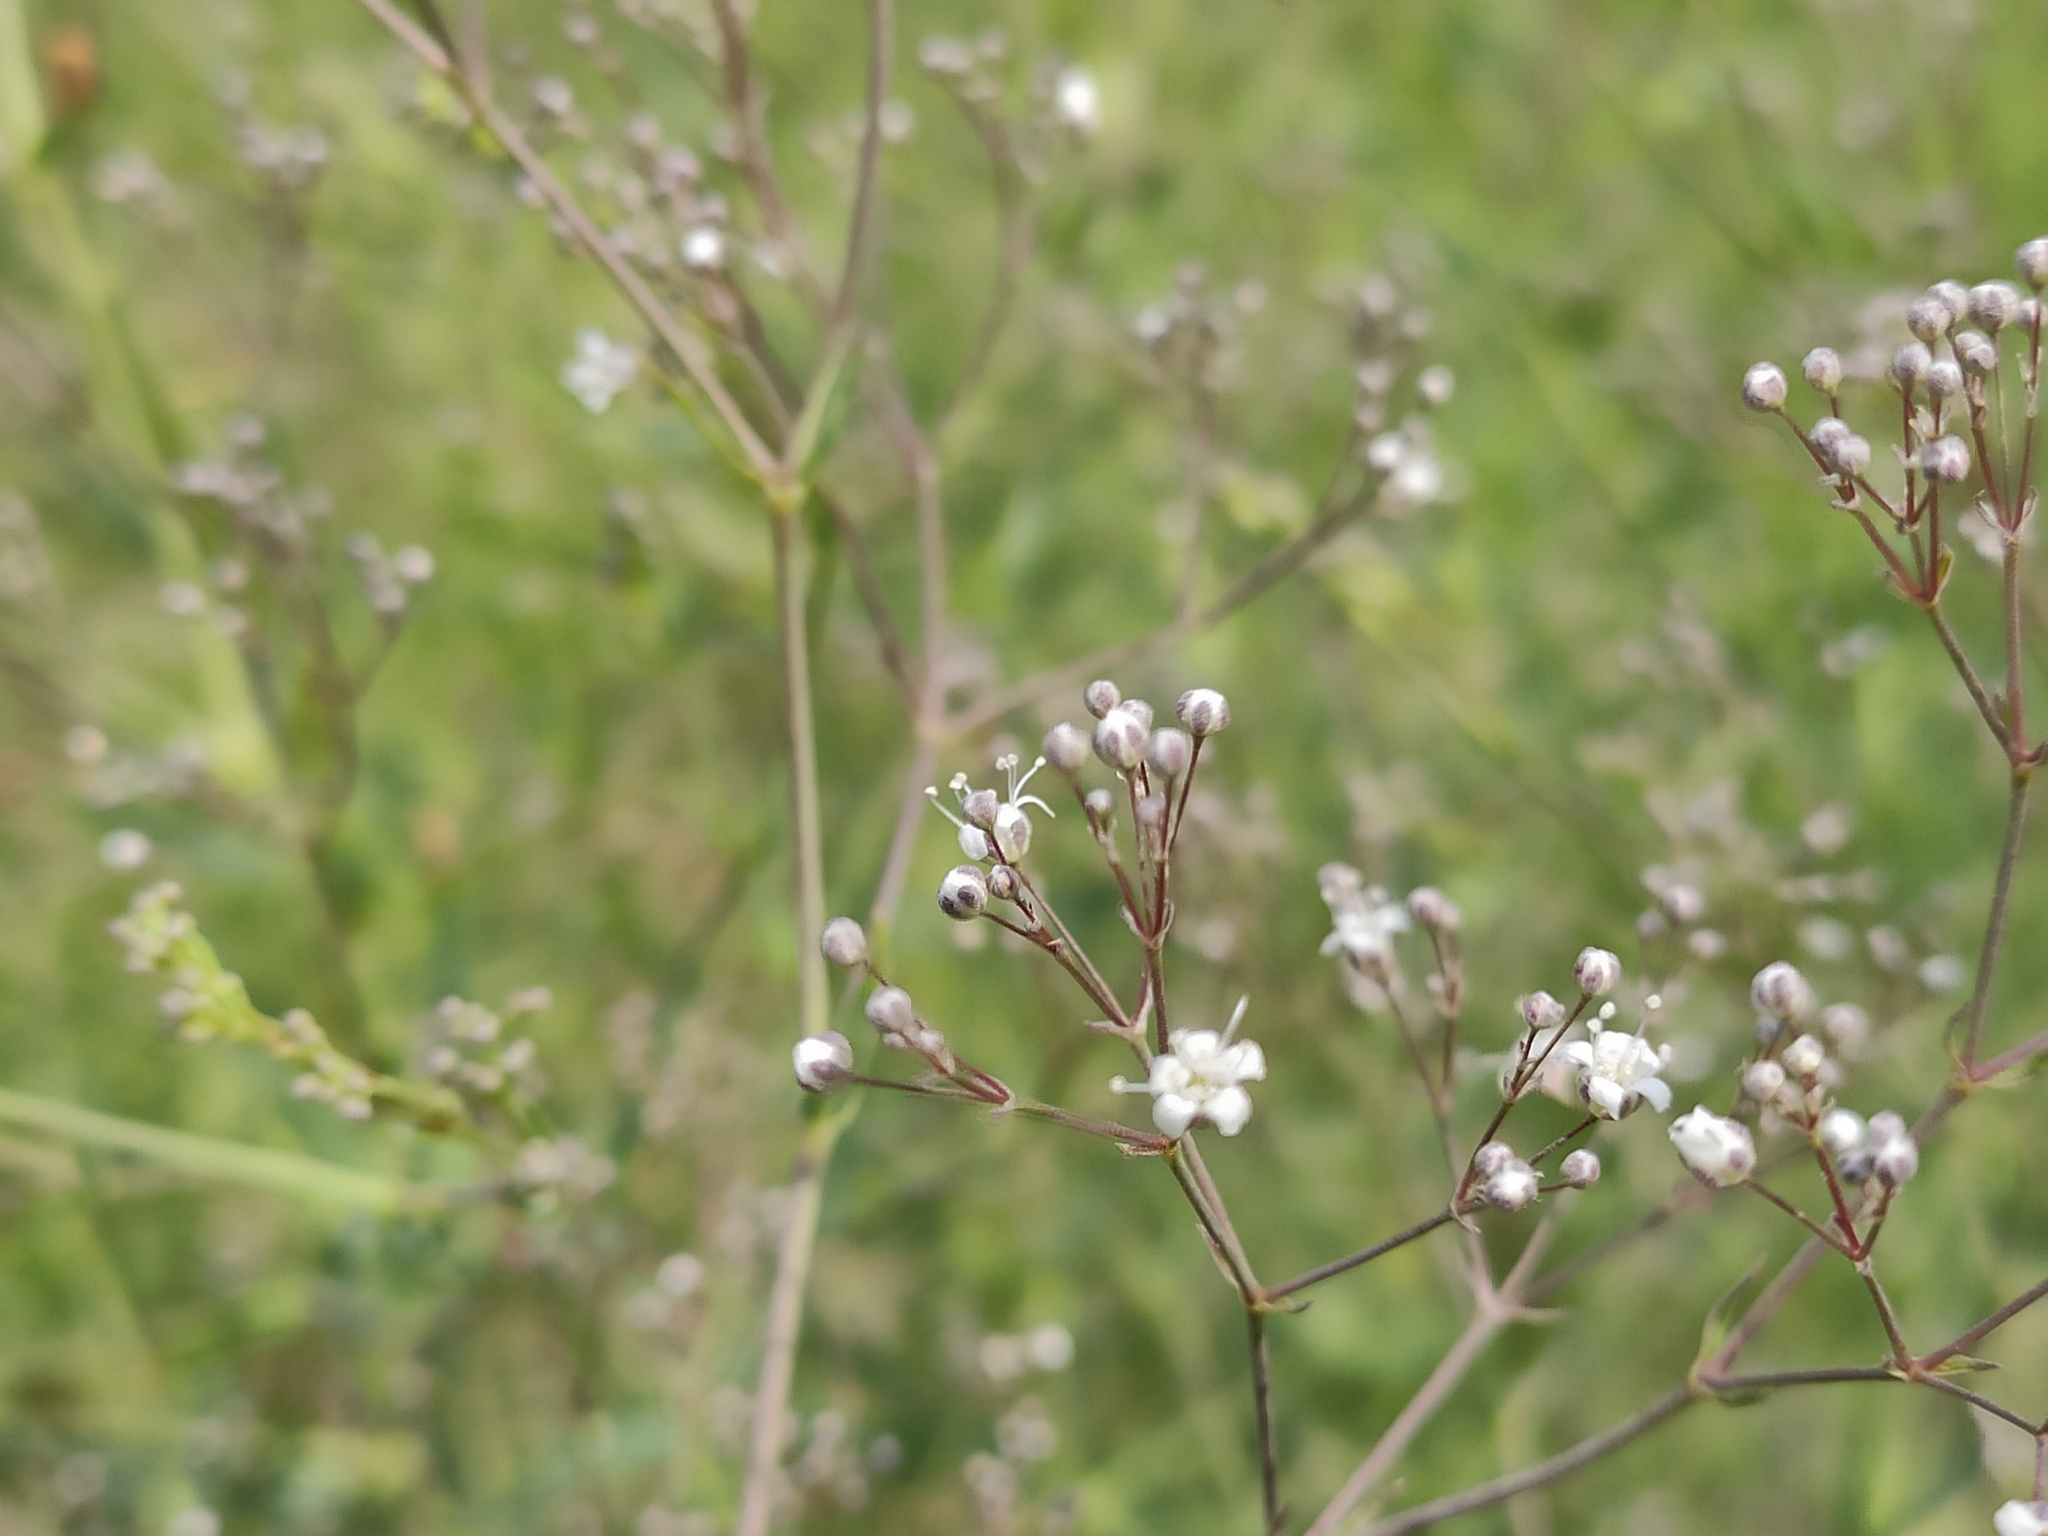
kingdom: Plantae
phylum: Tracheophyta
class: Magnoliopsida
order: Caryophyllales
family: Caryophyllaceae
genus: Gypsophila
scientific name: Gypsophila paniculata
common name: Baby's-breath
